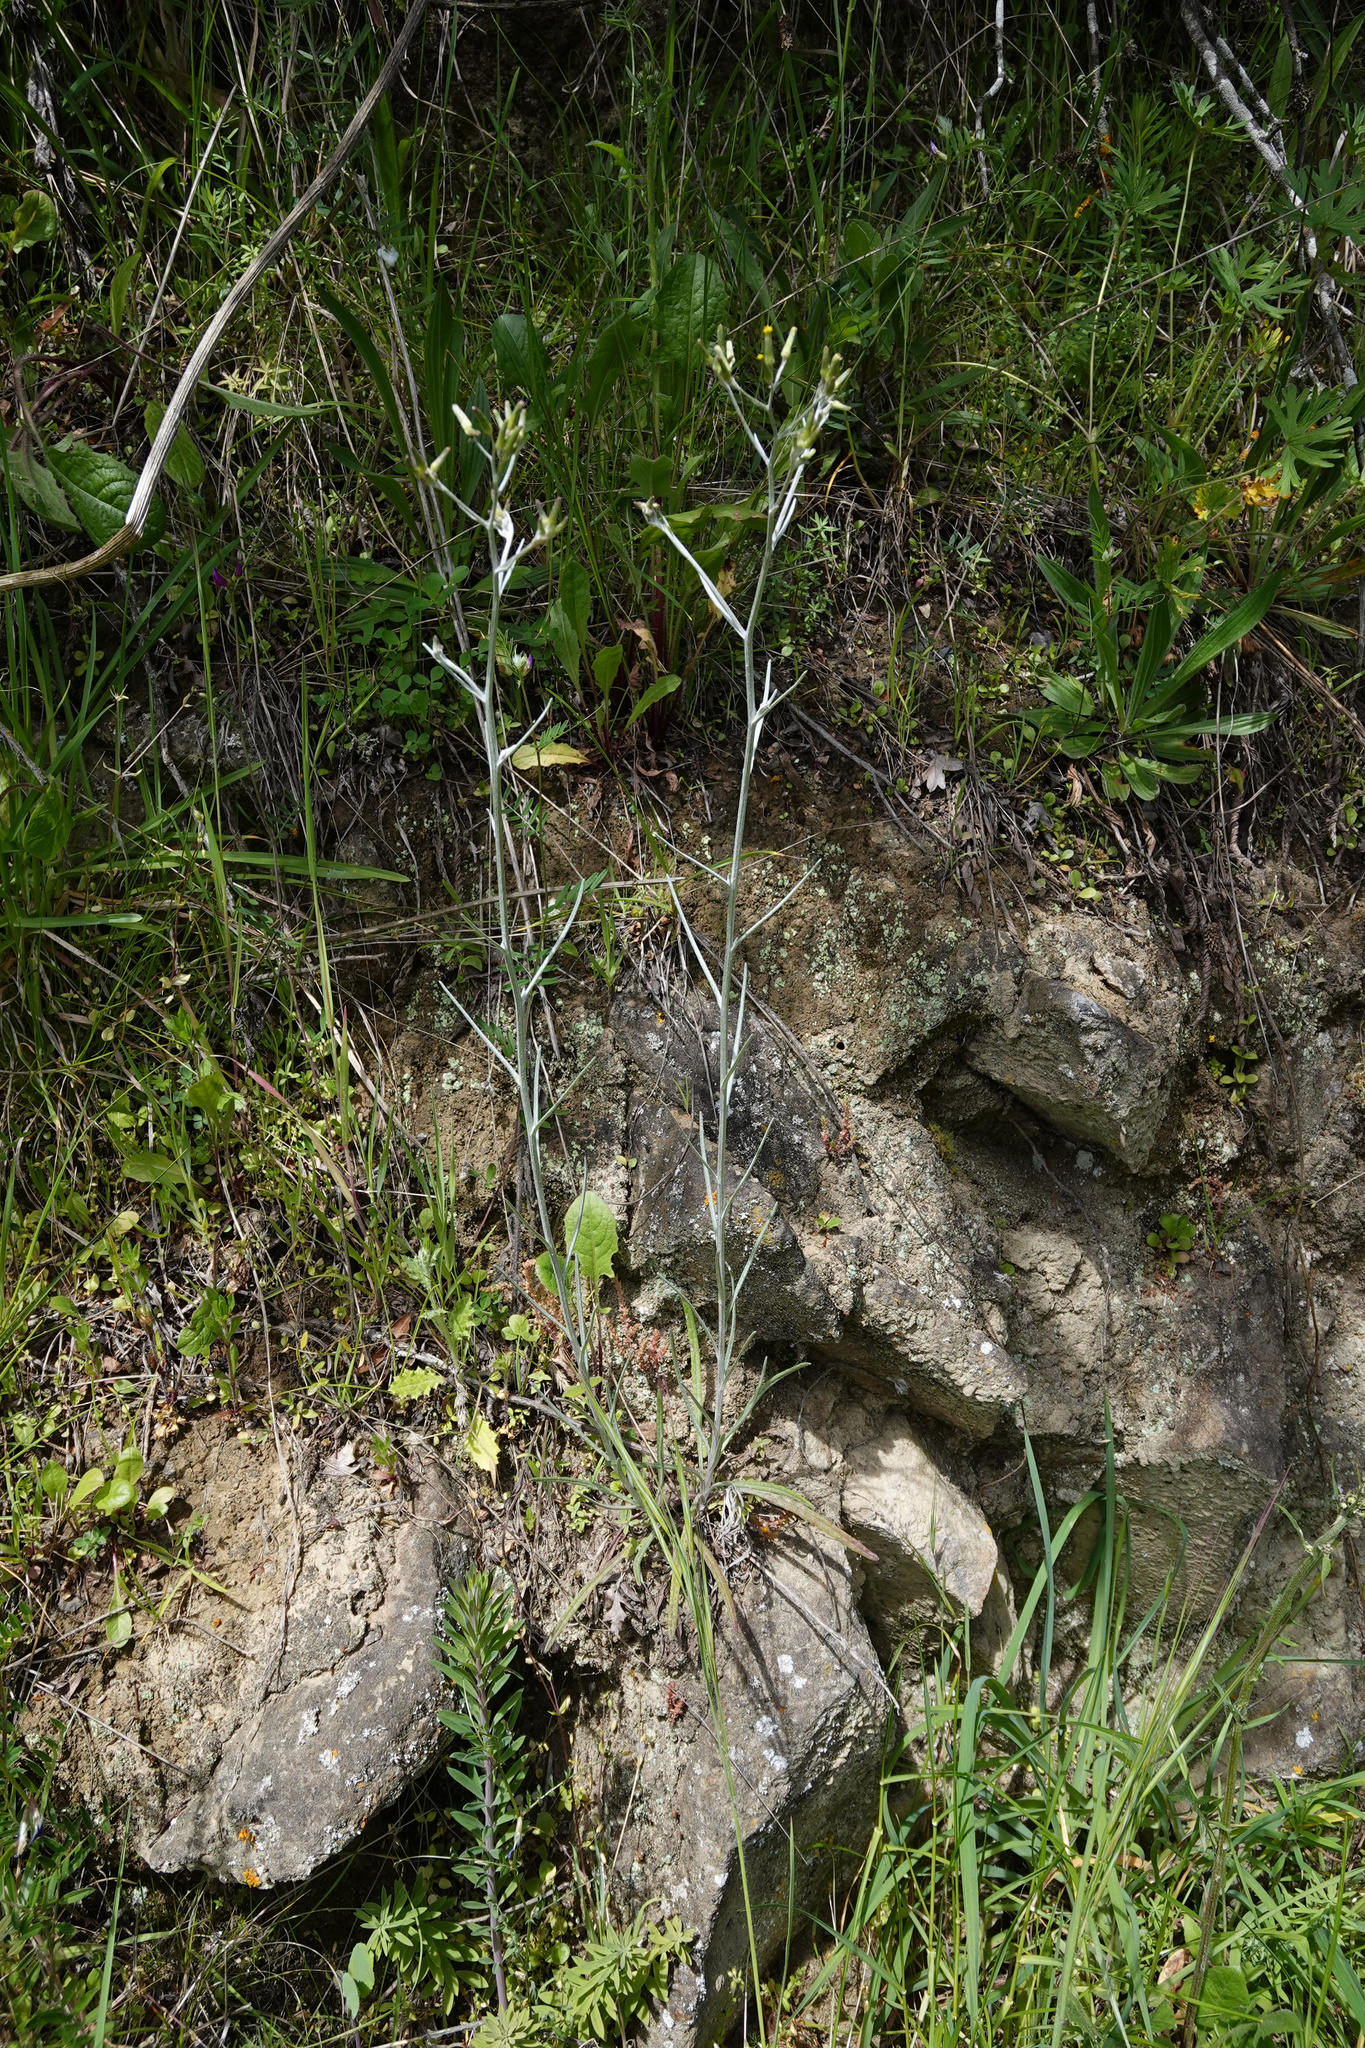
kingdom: Plantae
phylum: Tracheophyta
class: Magnoliopsida
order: Asterales
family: Asteraceae
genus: Senecio
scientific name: Senecio quadridentatus
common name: Cotton fireweed
